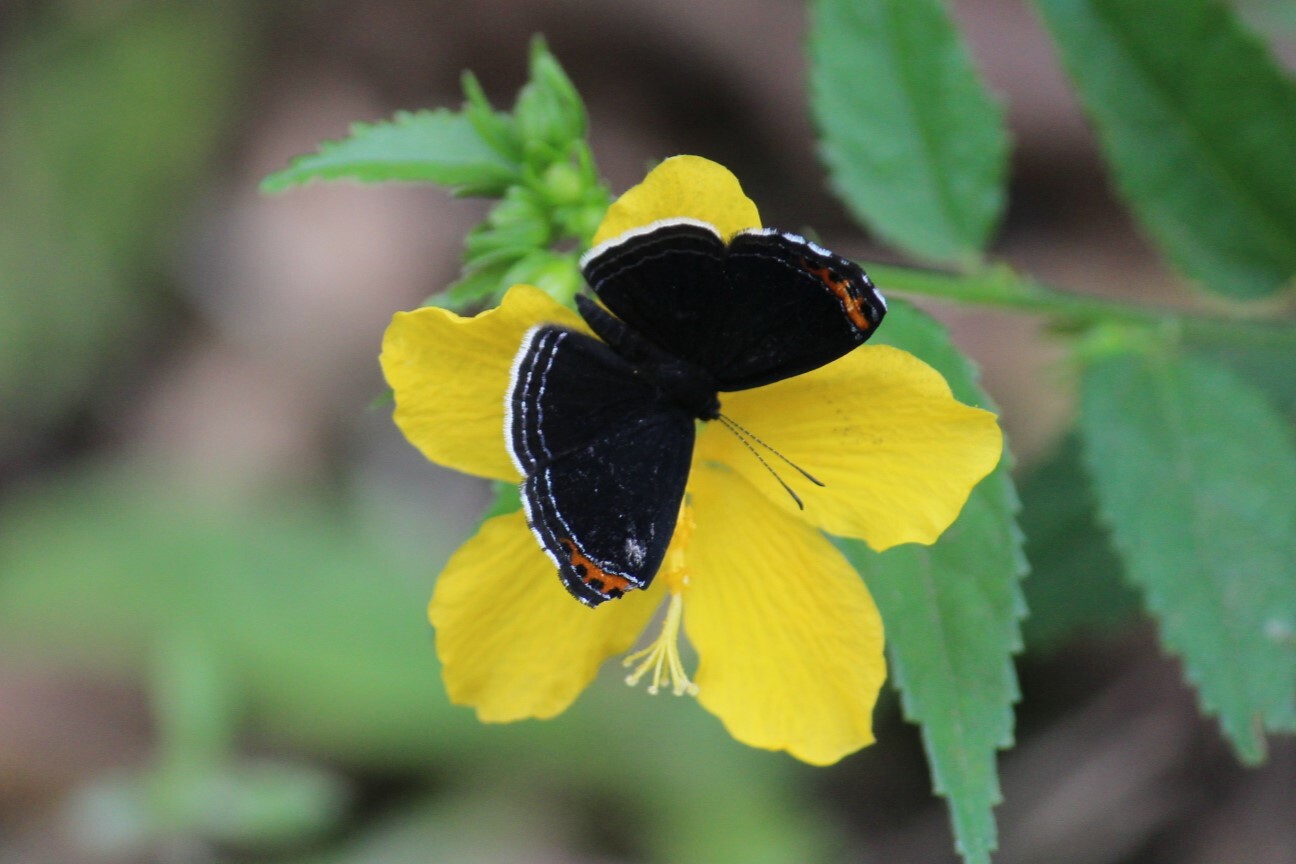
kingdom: Animalia
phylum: Arthropoda
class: Insecta
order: Lepidoptera
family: Riodinidae
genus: Nelone
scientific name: Nelone cadmeis
